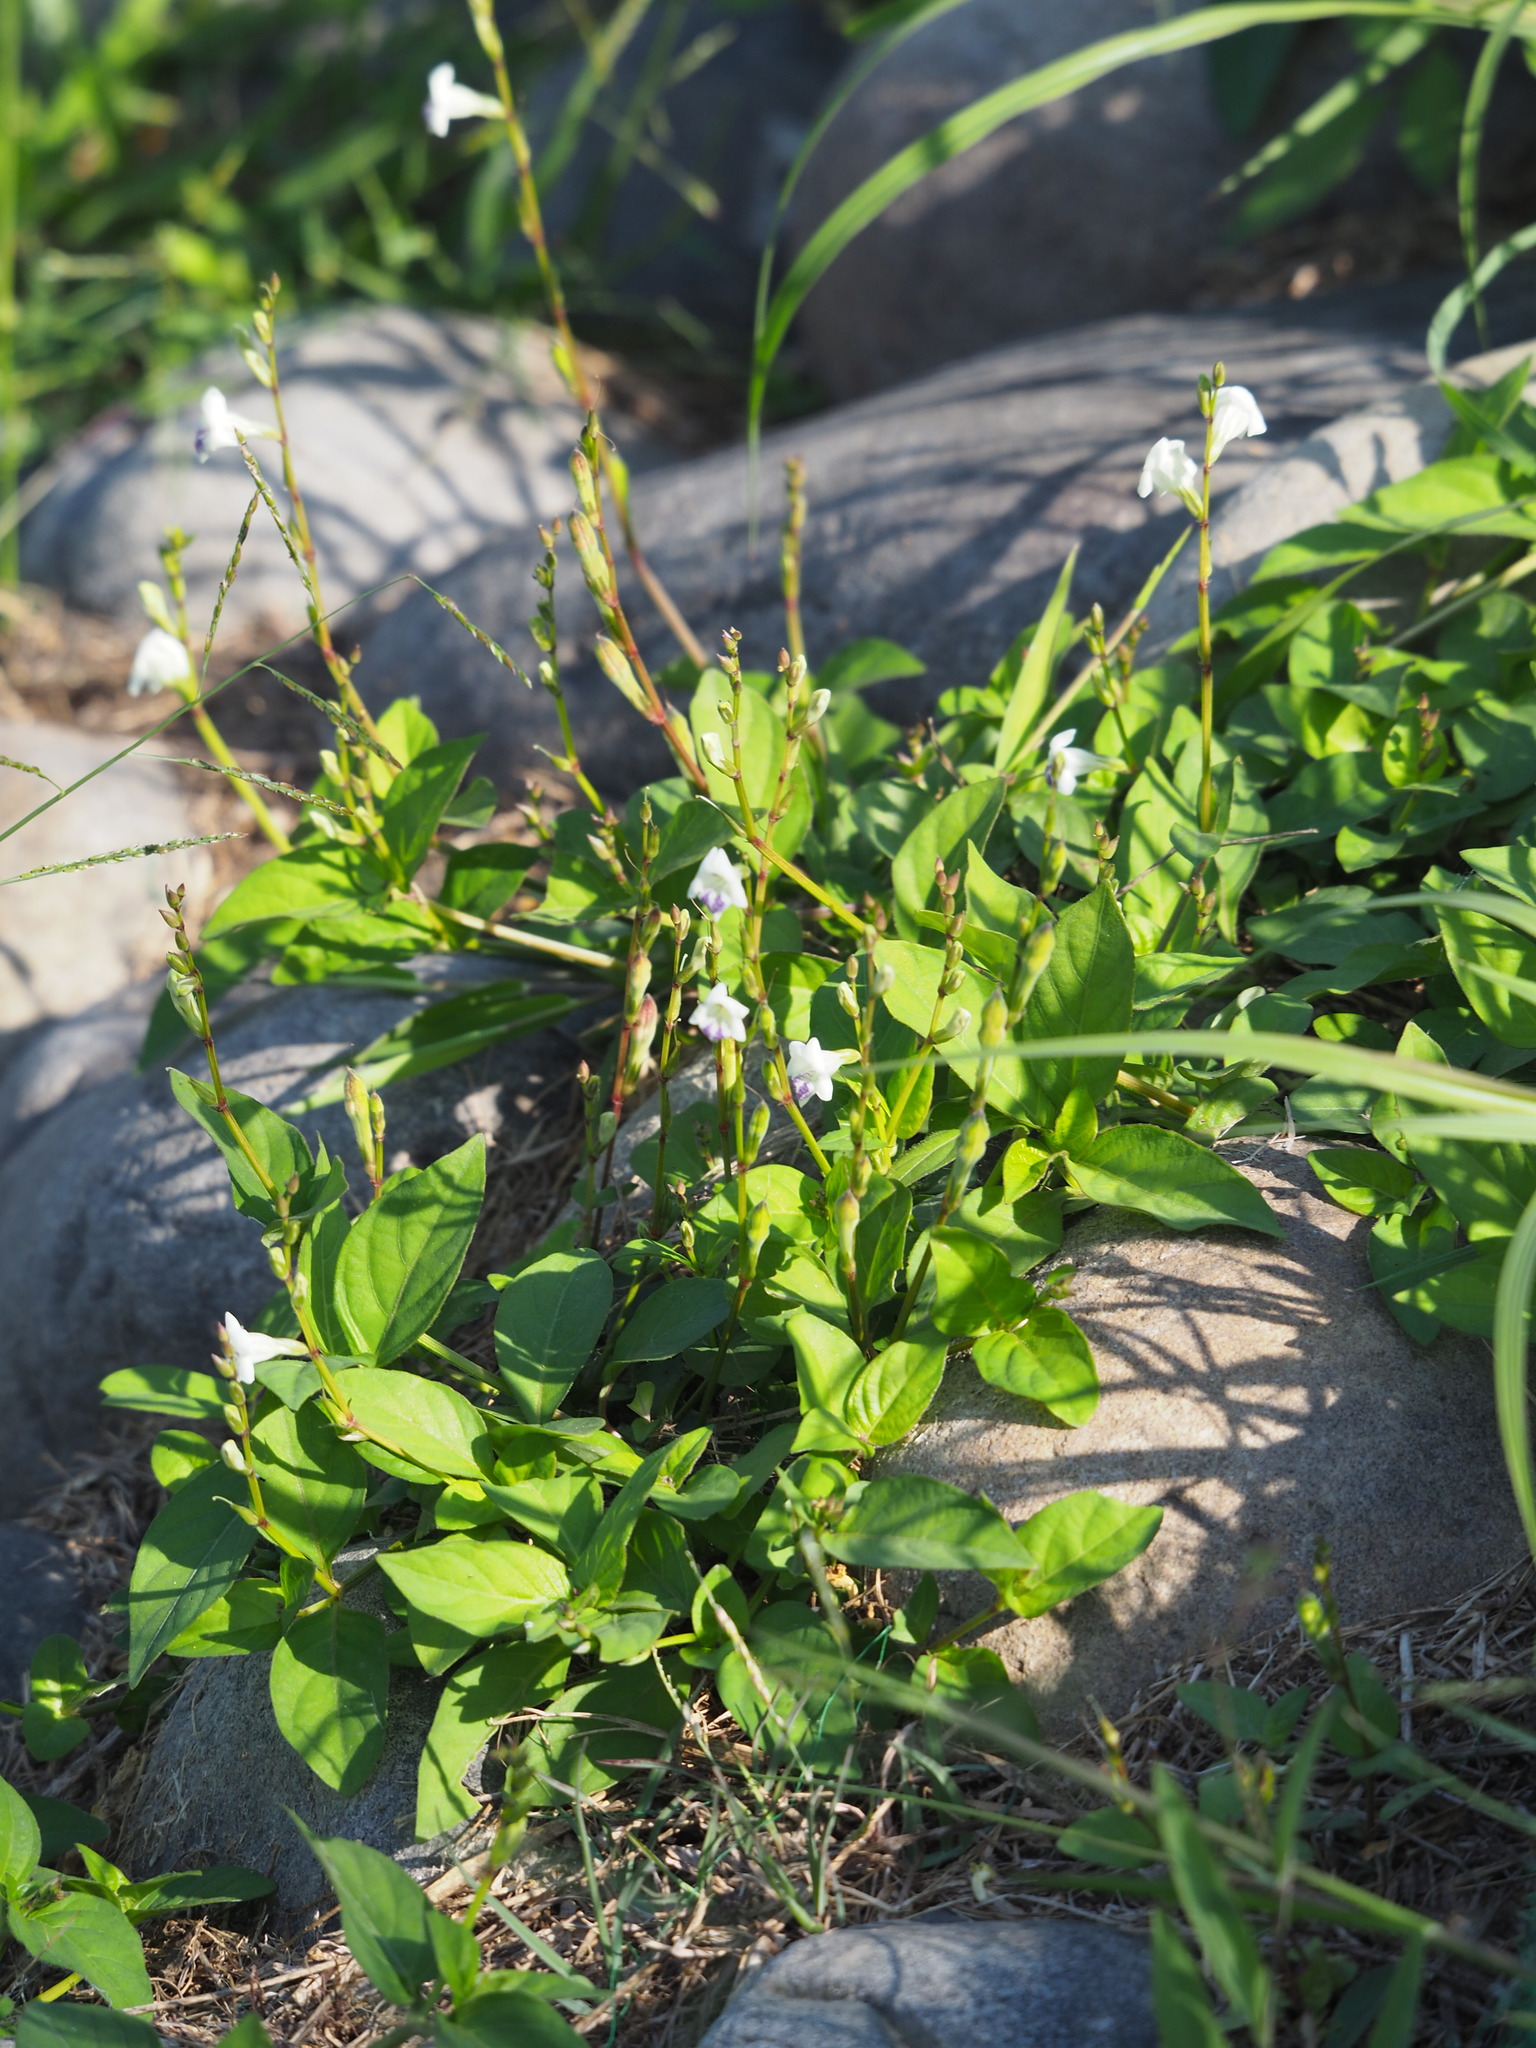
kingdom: Plantae
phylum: Tracheophyta
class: Magnoliopsida
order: Lamiales
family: Acanthaceae
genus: Asystasia
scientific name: Asystasia intrusa
